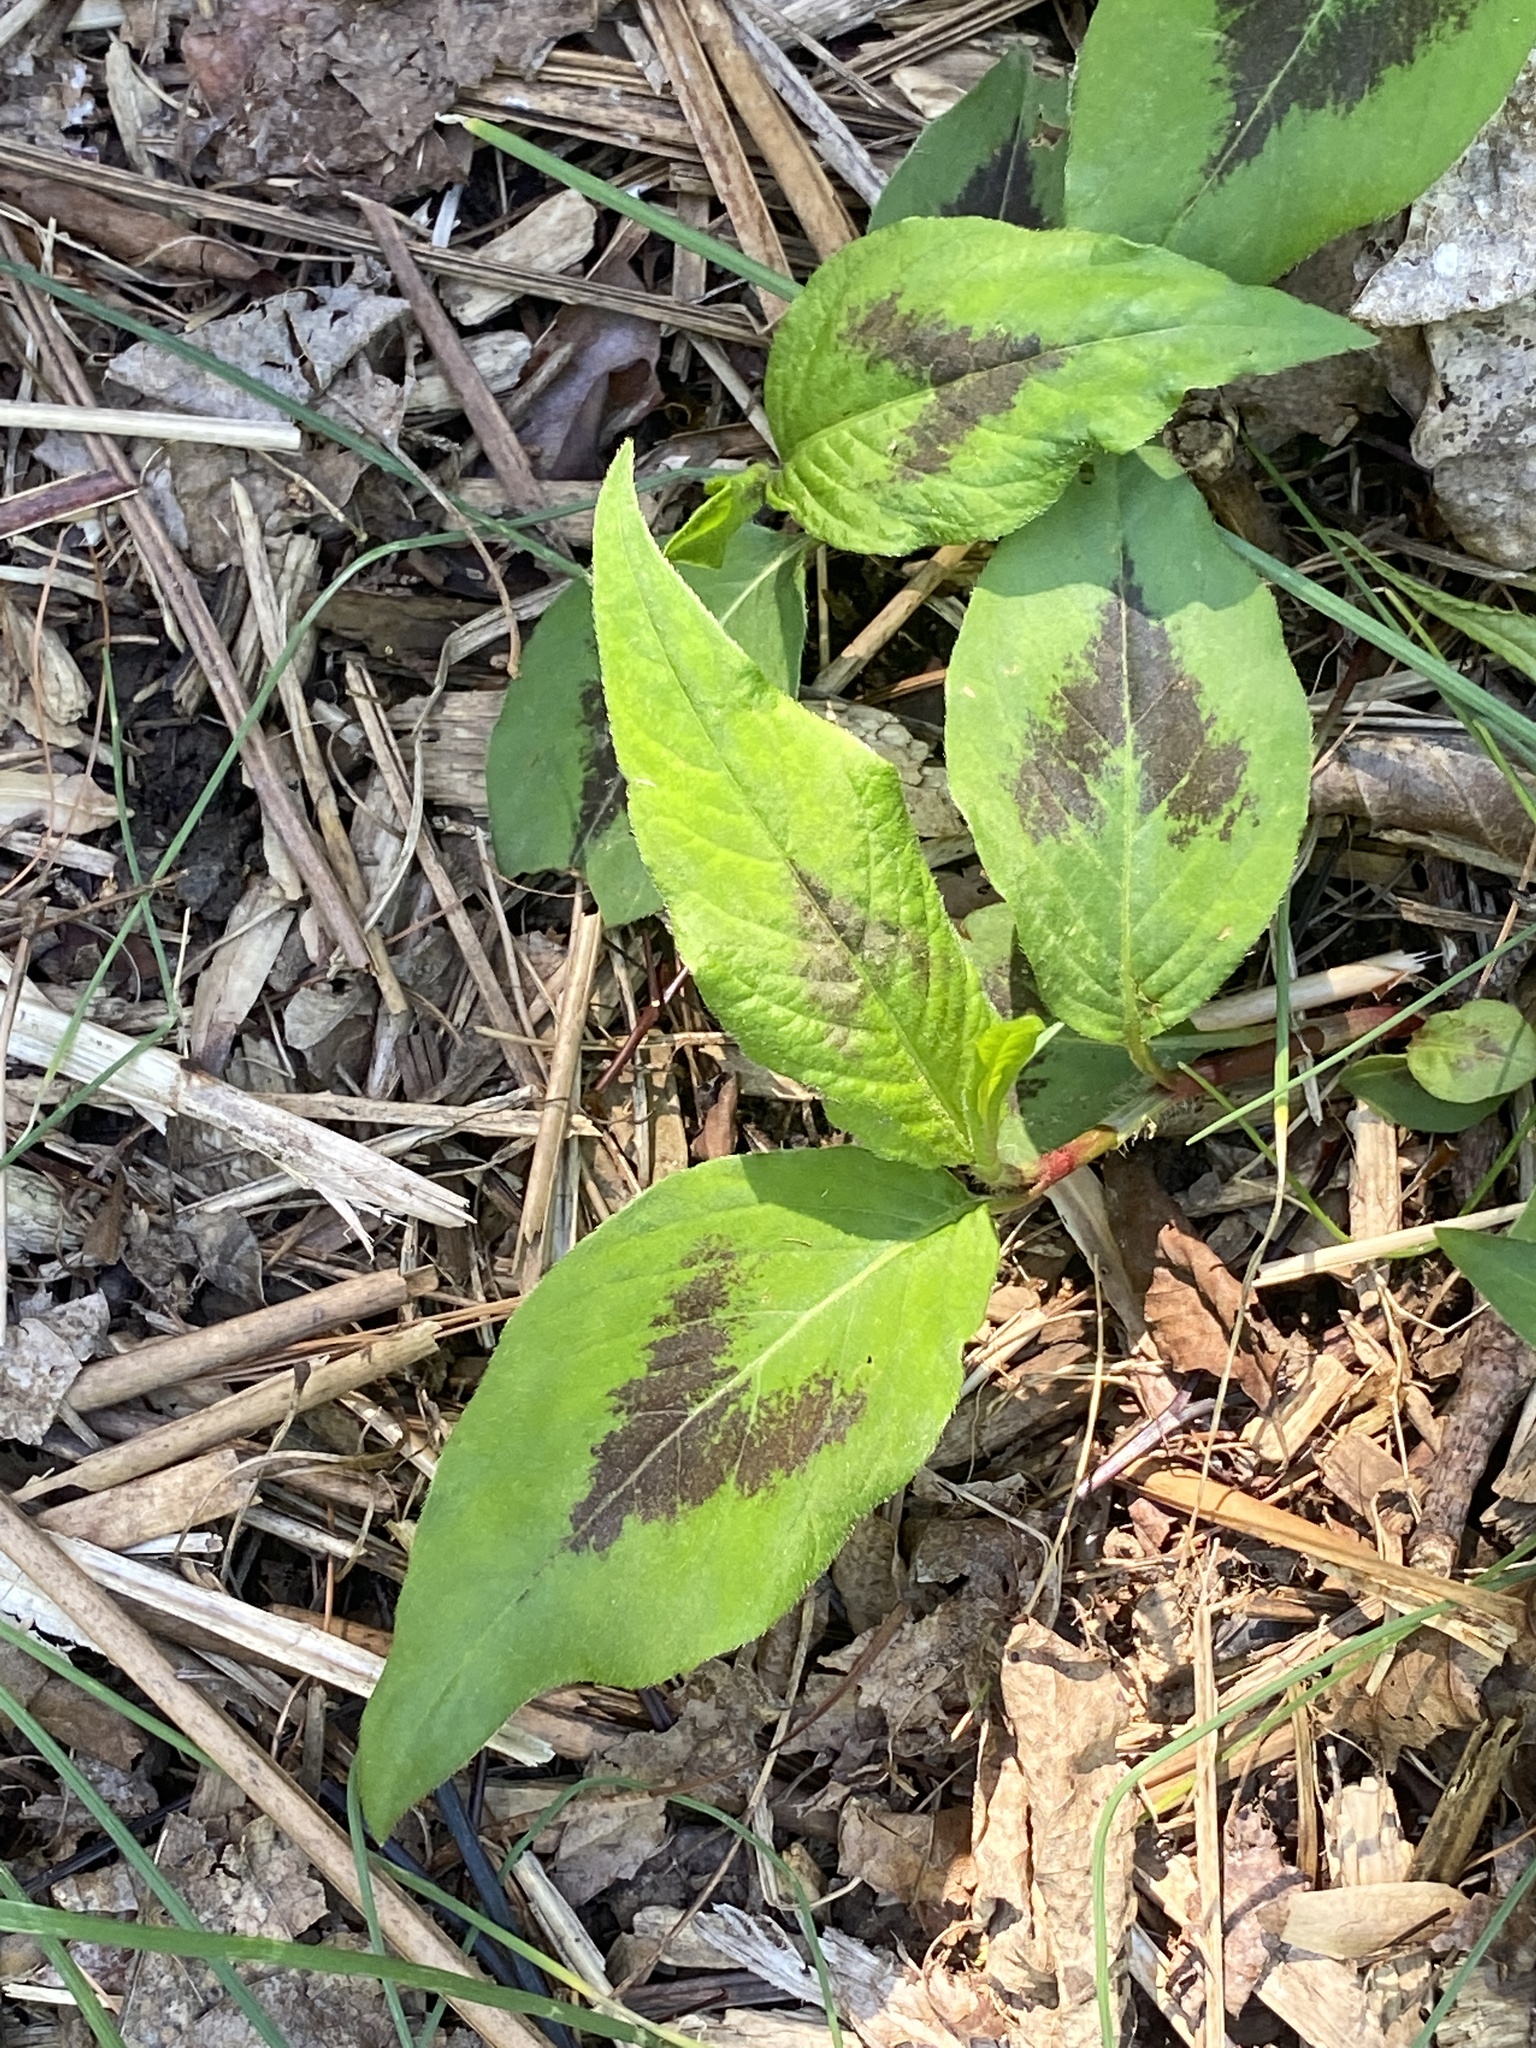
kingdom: Plantae
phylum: Tracheophyta
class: Magnoliopsida
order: Caryophyllales
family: Polygonaceae
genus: Persicaria
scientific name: Persicaria virginiana
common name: Jumpseed
